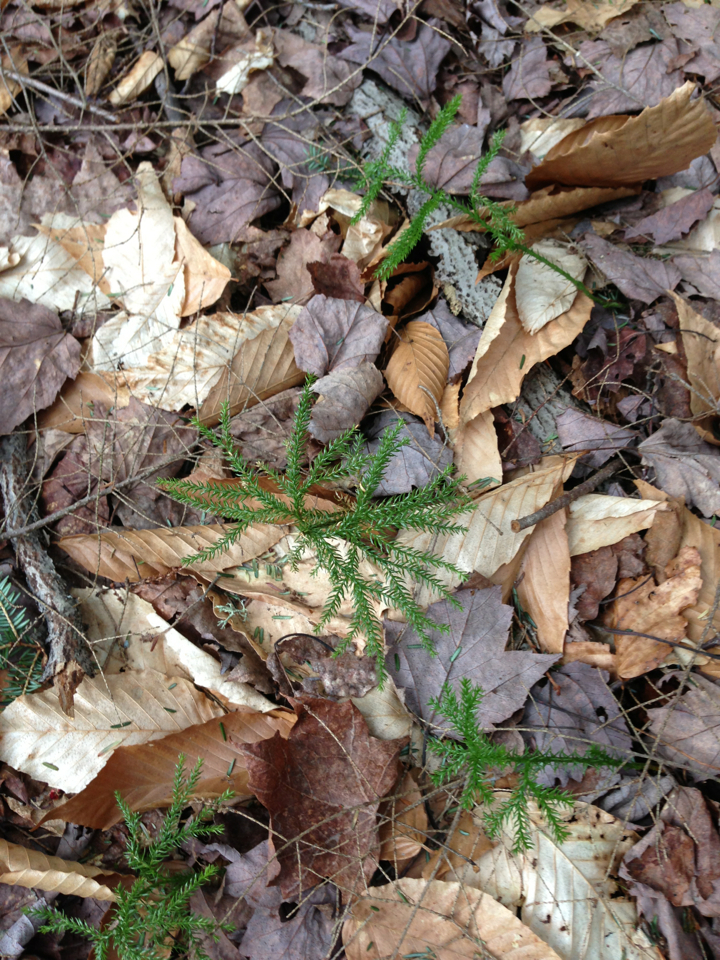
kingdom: Plantae
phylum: Tracheophyta
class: Lycopodiopsida
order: Lycopodiales
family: Lycopodiaceae
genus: Dendrolycopodium
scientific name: Dendrolycopodium dendroideum
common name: Northern tree-clubmoss
